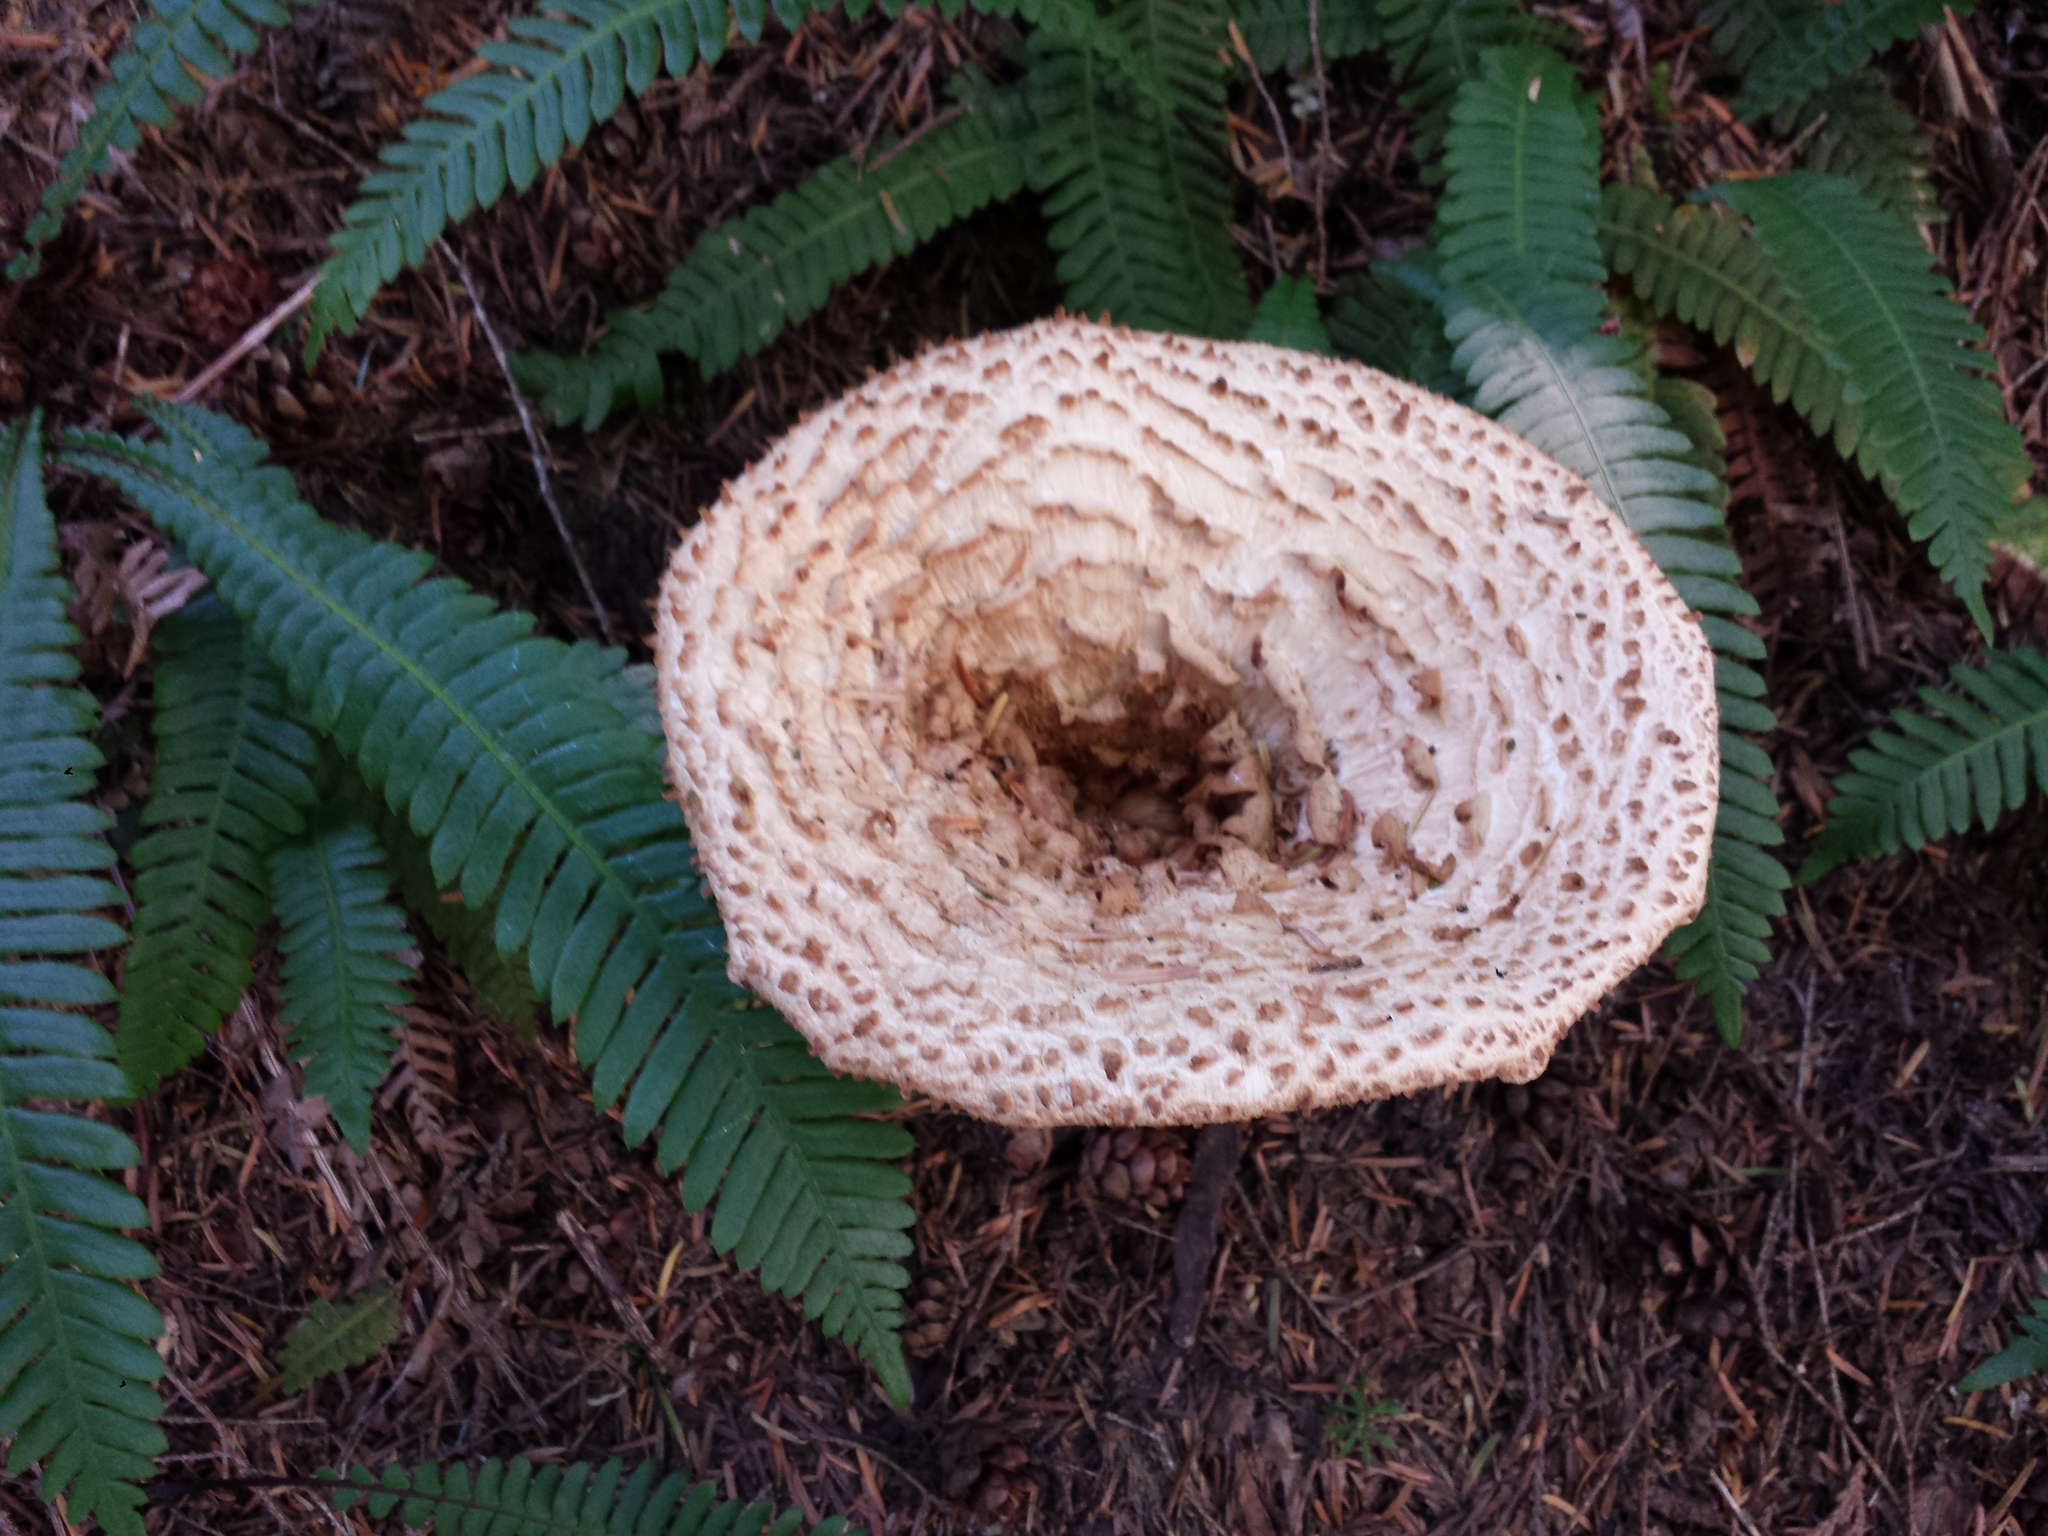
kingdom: Fungi
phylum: Basidiomycota
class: Agaricomycetes
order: Gomphales
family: Gomphaceae
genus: Turbinellus
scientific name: Turbinellus floccosus
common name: Scaly chanterelle
